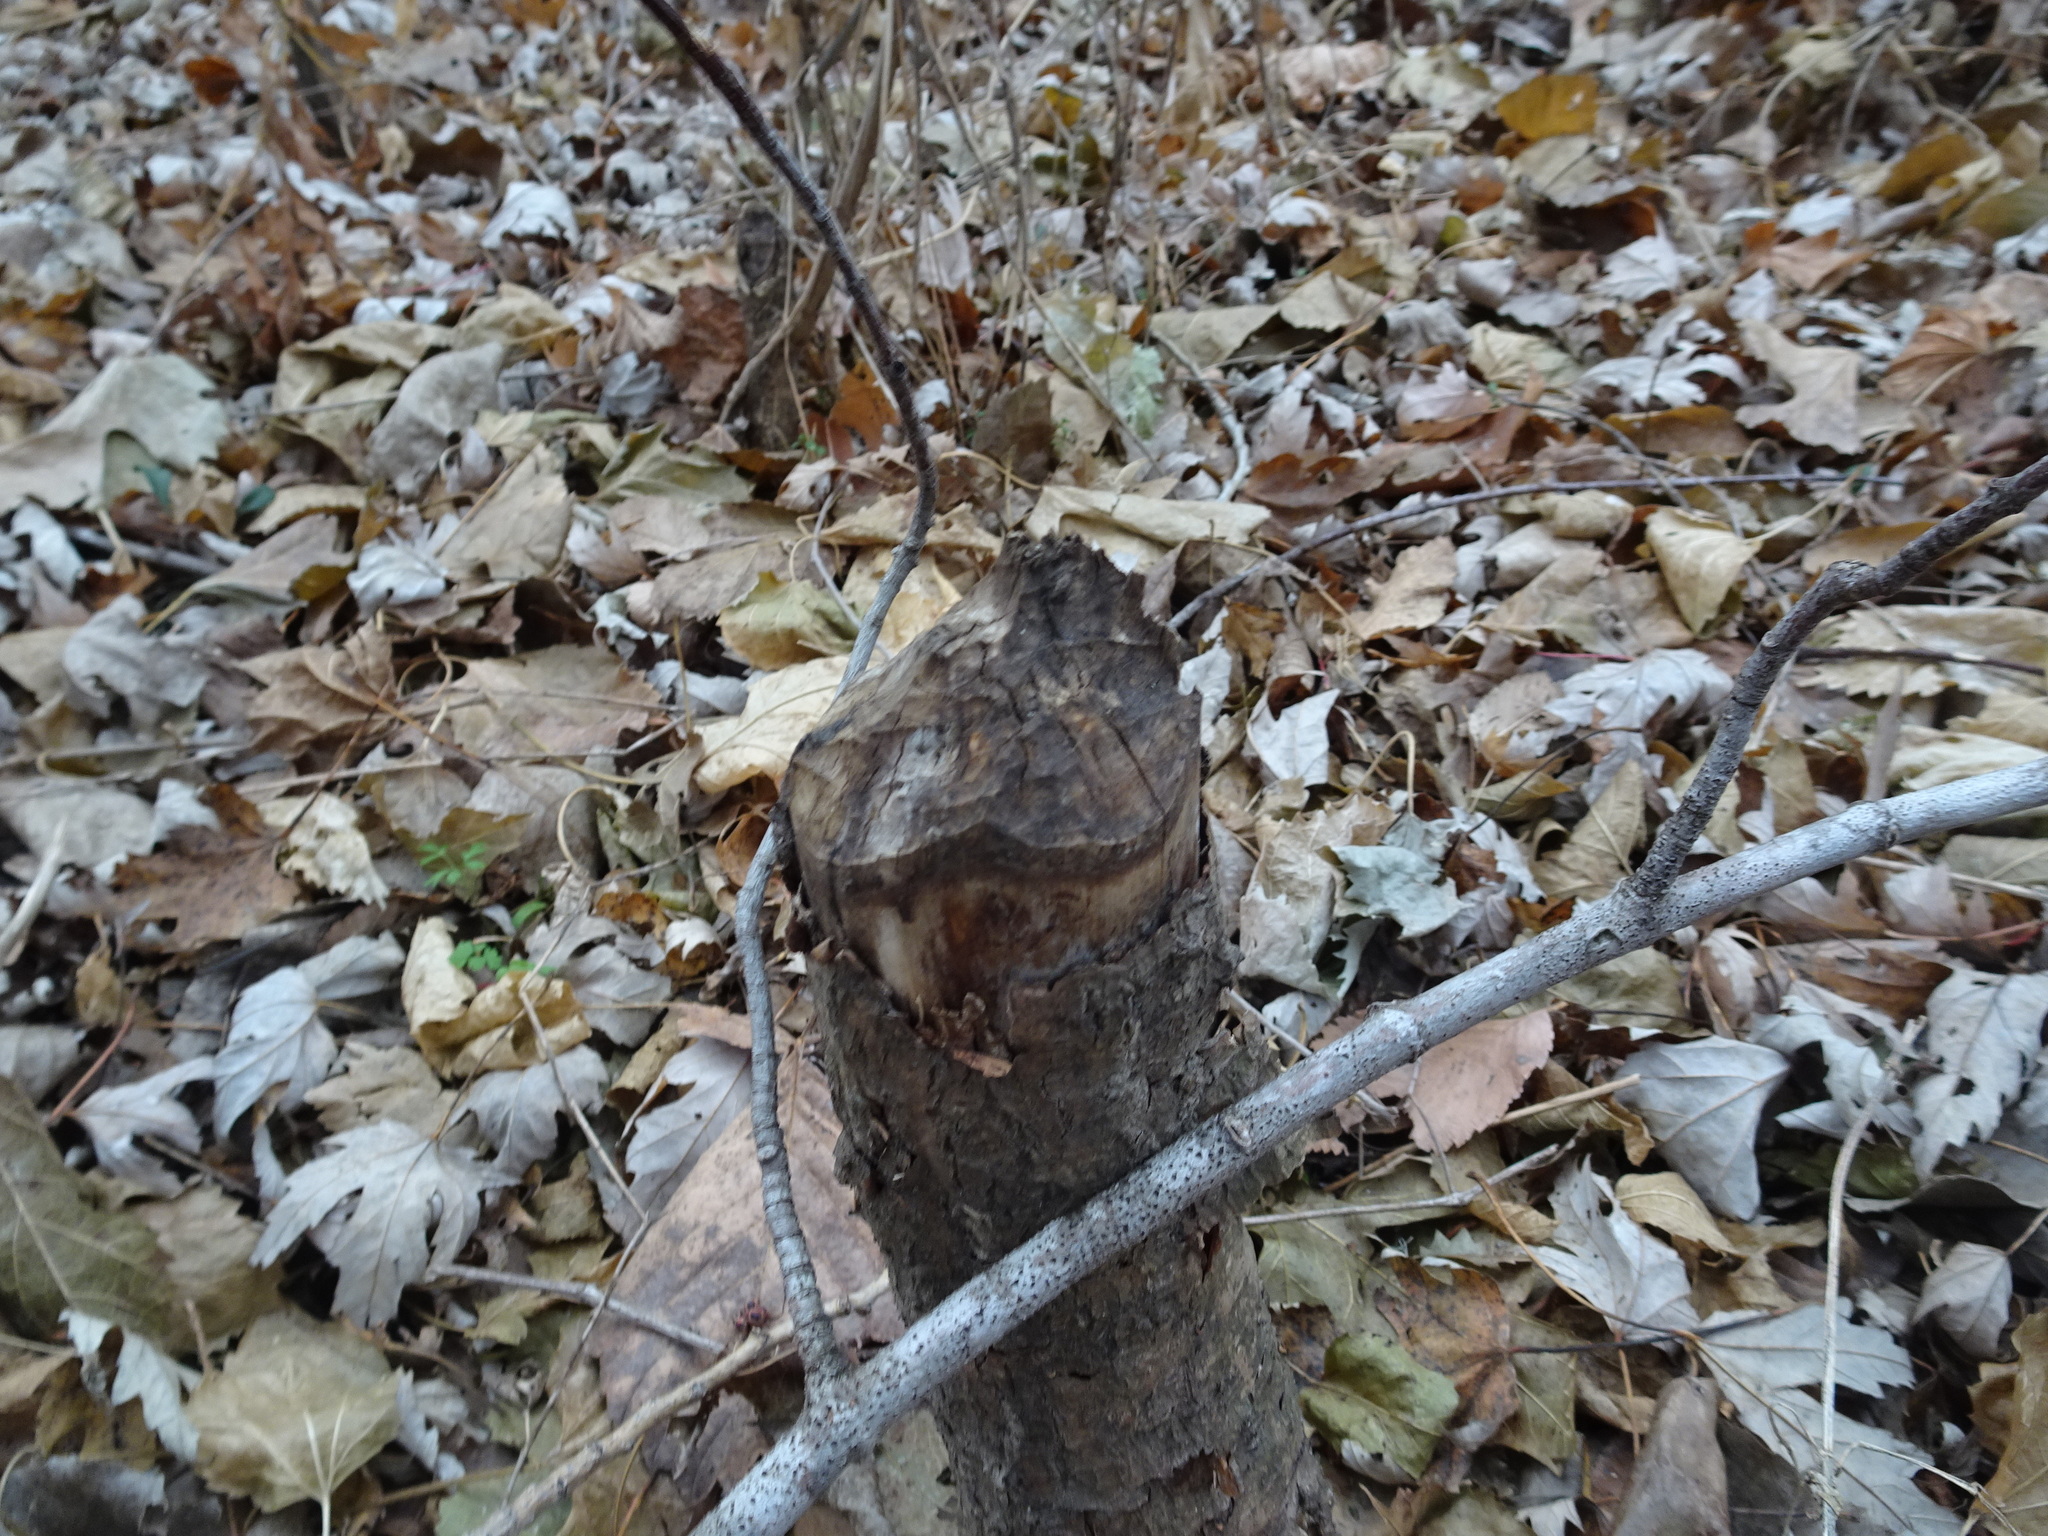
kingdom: Animalia
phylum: Chordata
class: Mammalia
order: Rodentia
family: Castoridae
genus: Castor
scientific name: Castor canadensis
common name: American beaver
